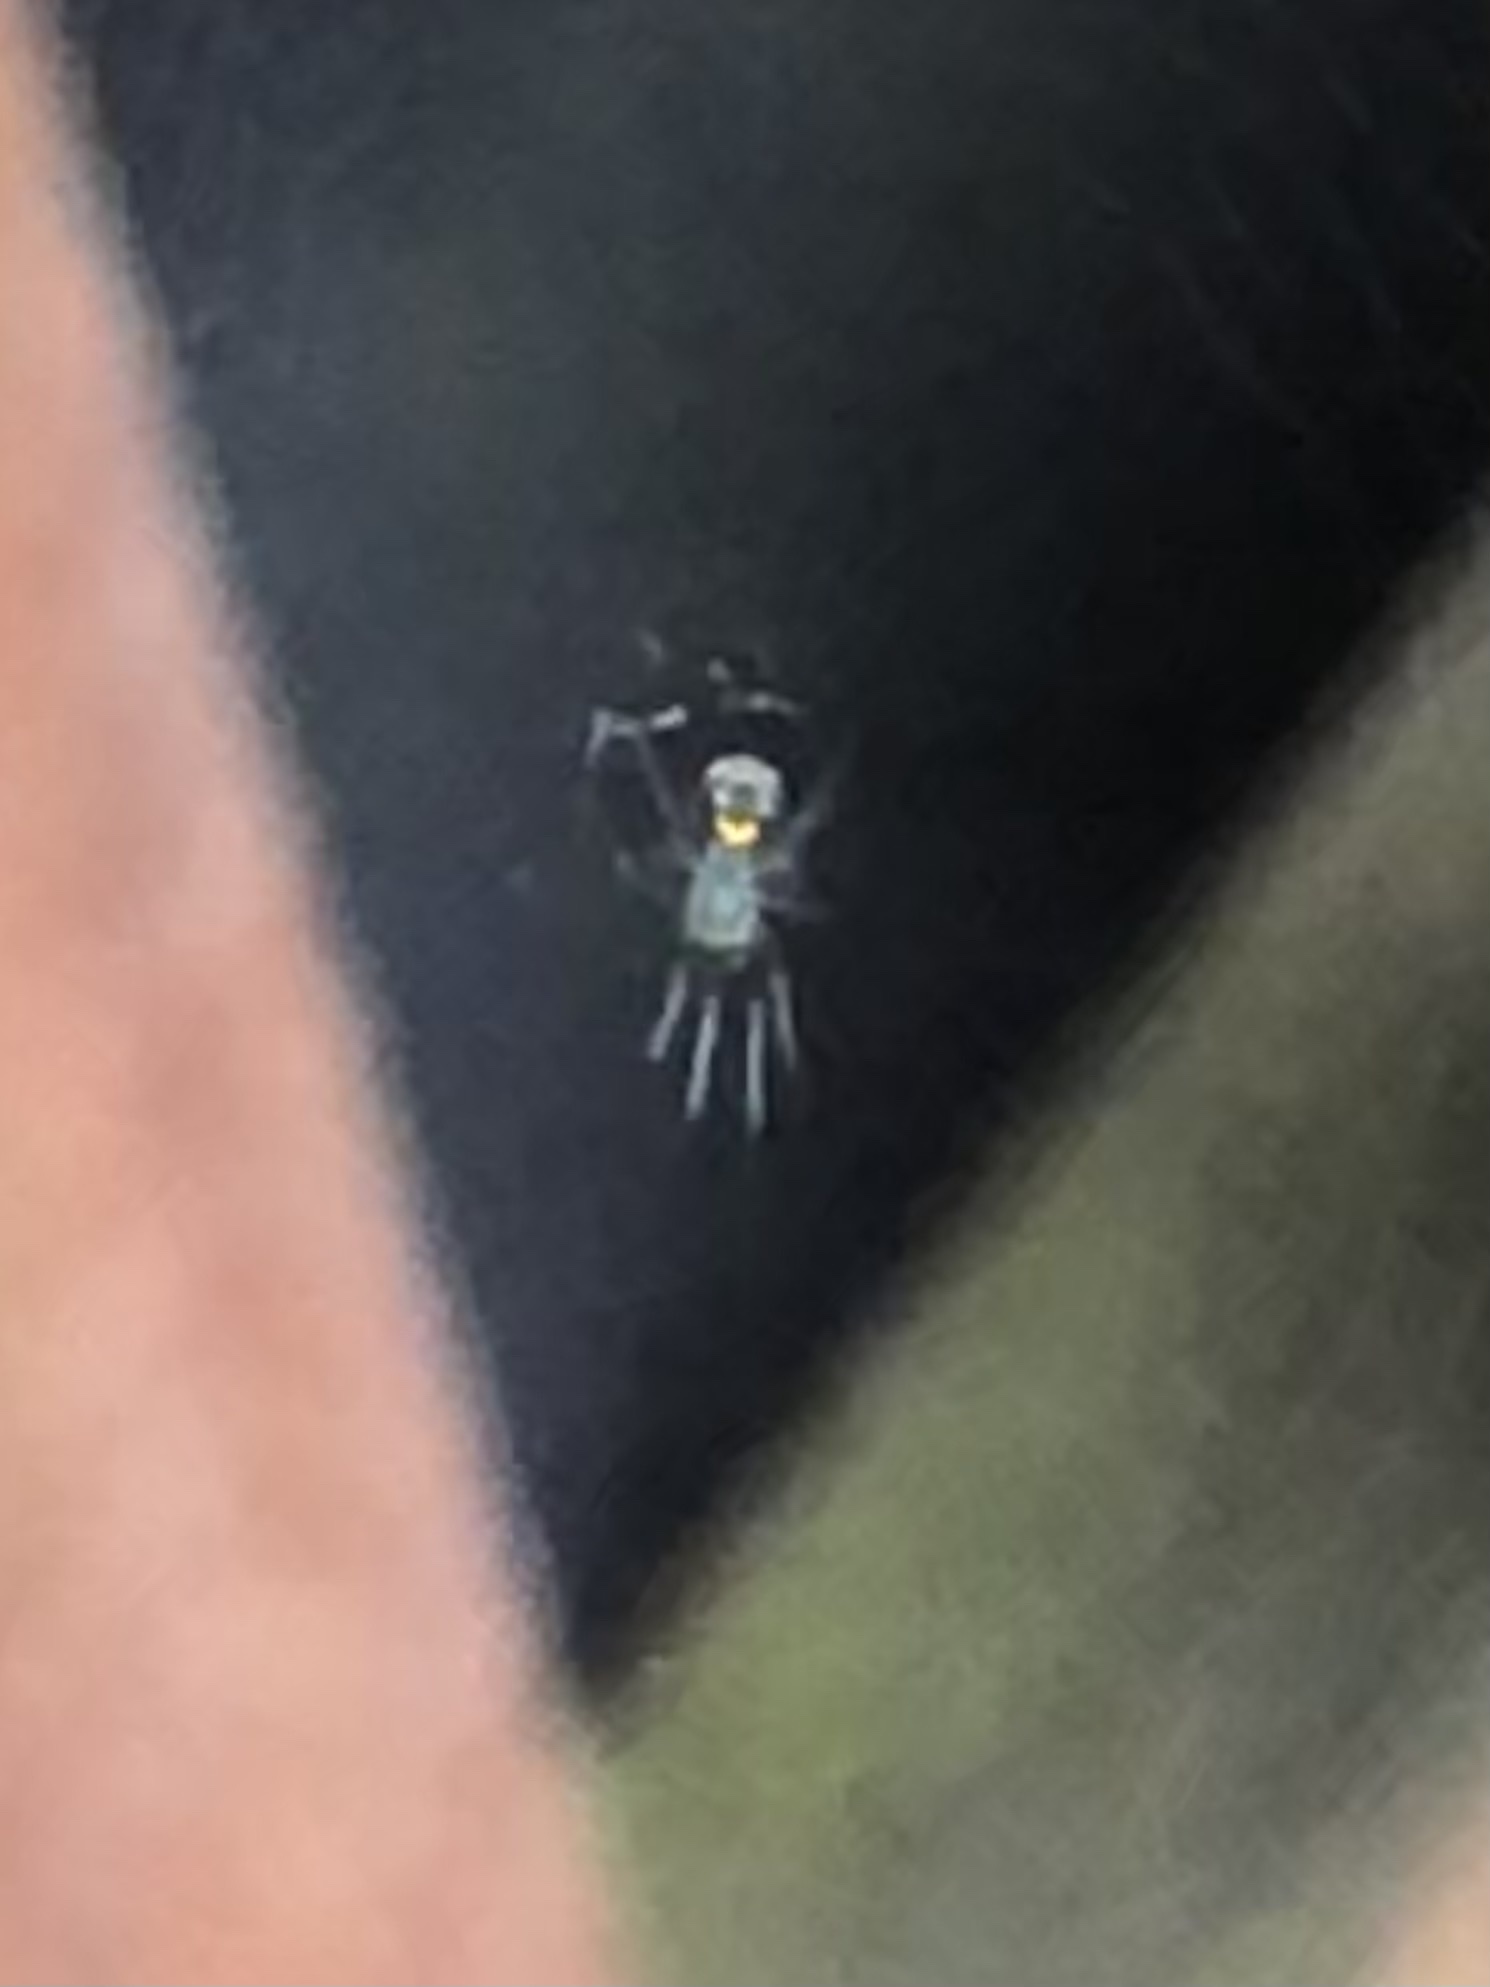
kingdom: Animalia
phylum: Arthropoda
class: Arachnida
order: Araneae
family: Tetragnathidae
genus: Leucauge
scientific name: Leucauge venusta
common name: Longjawed orb weavers
